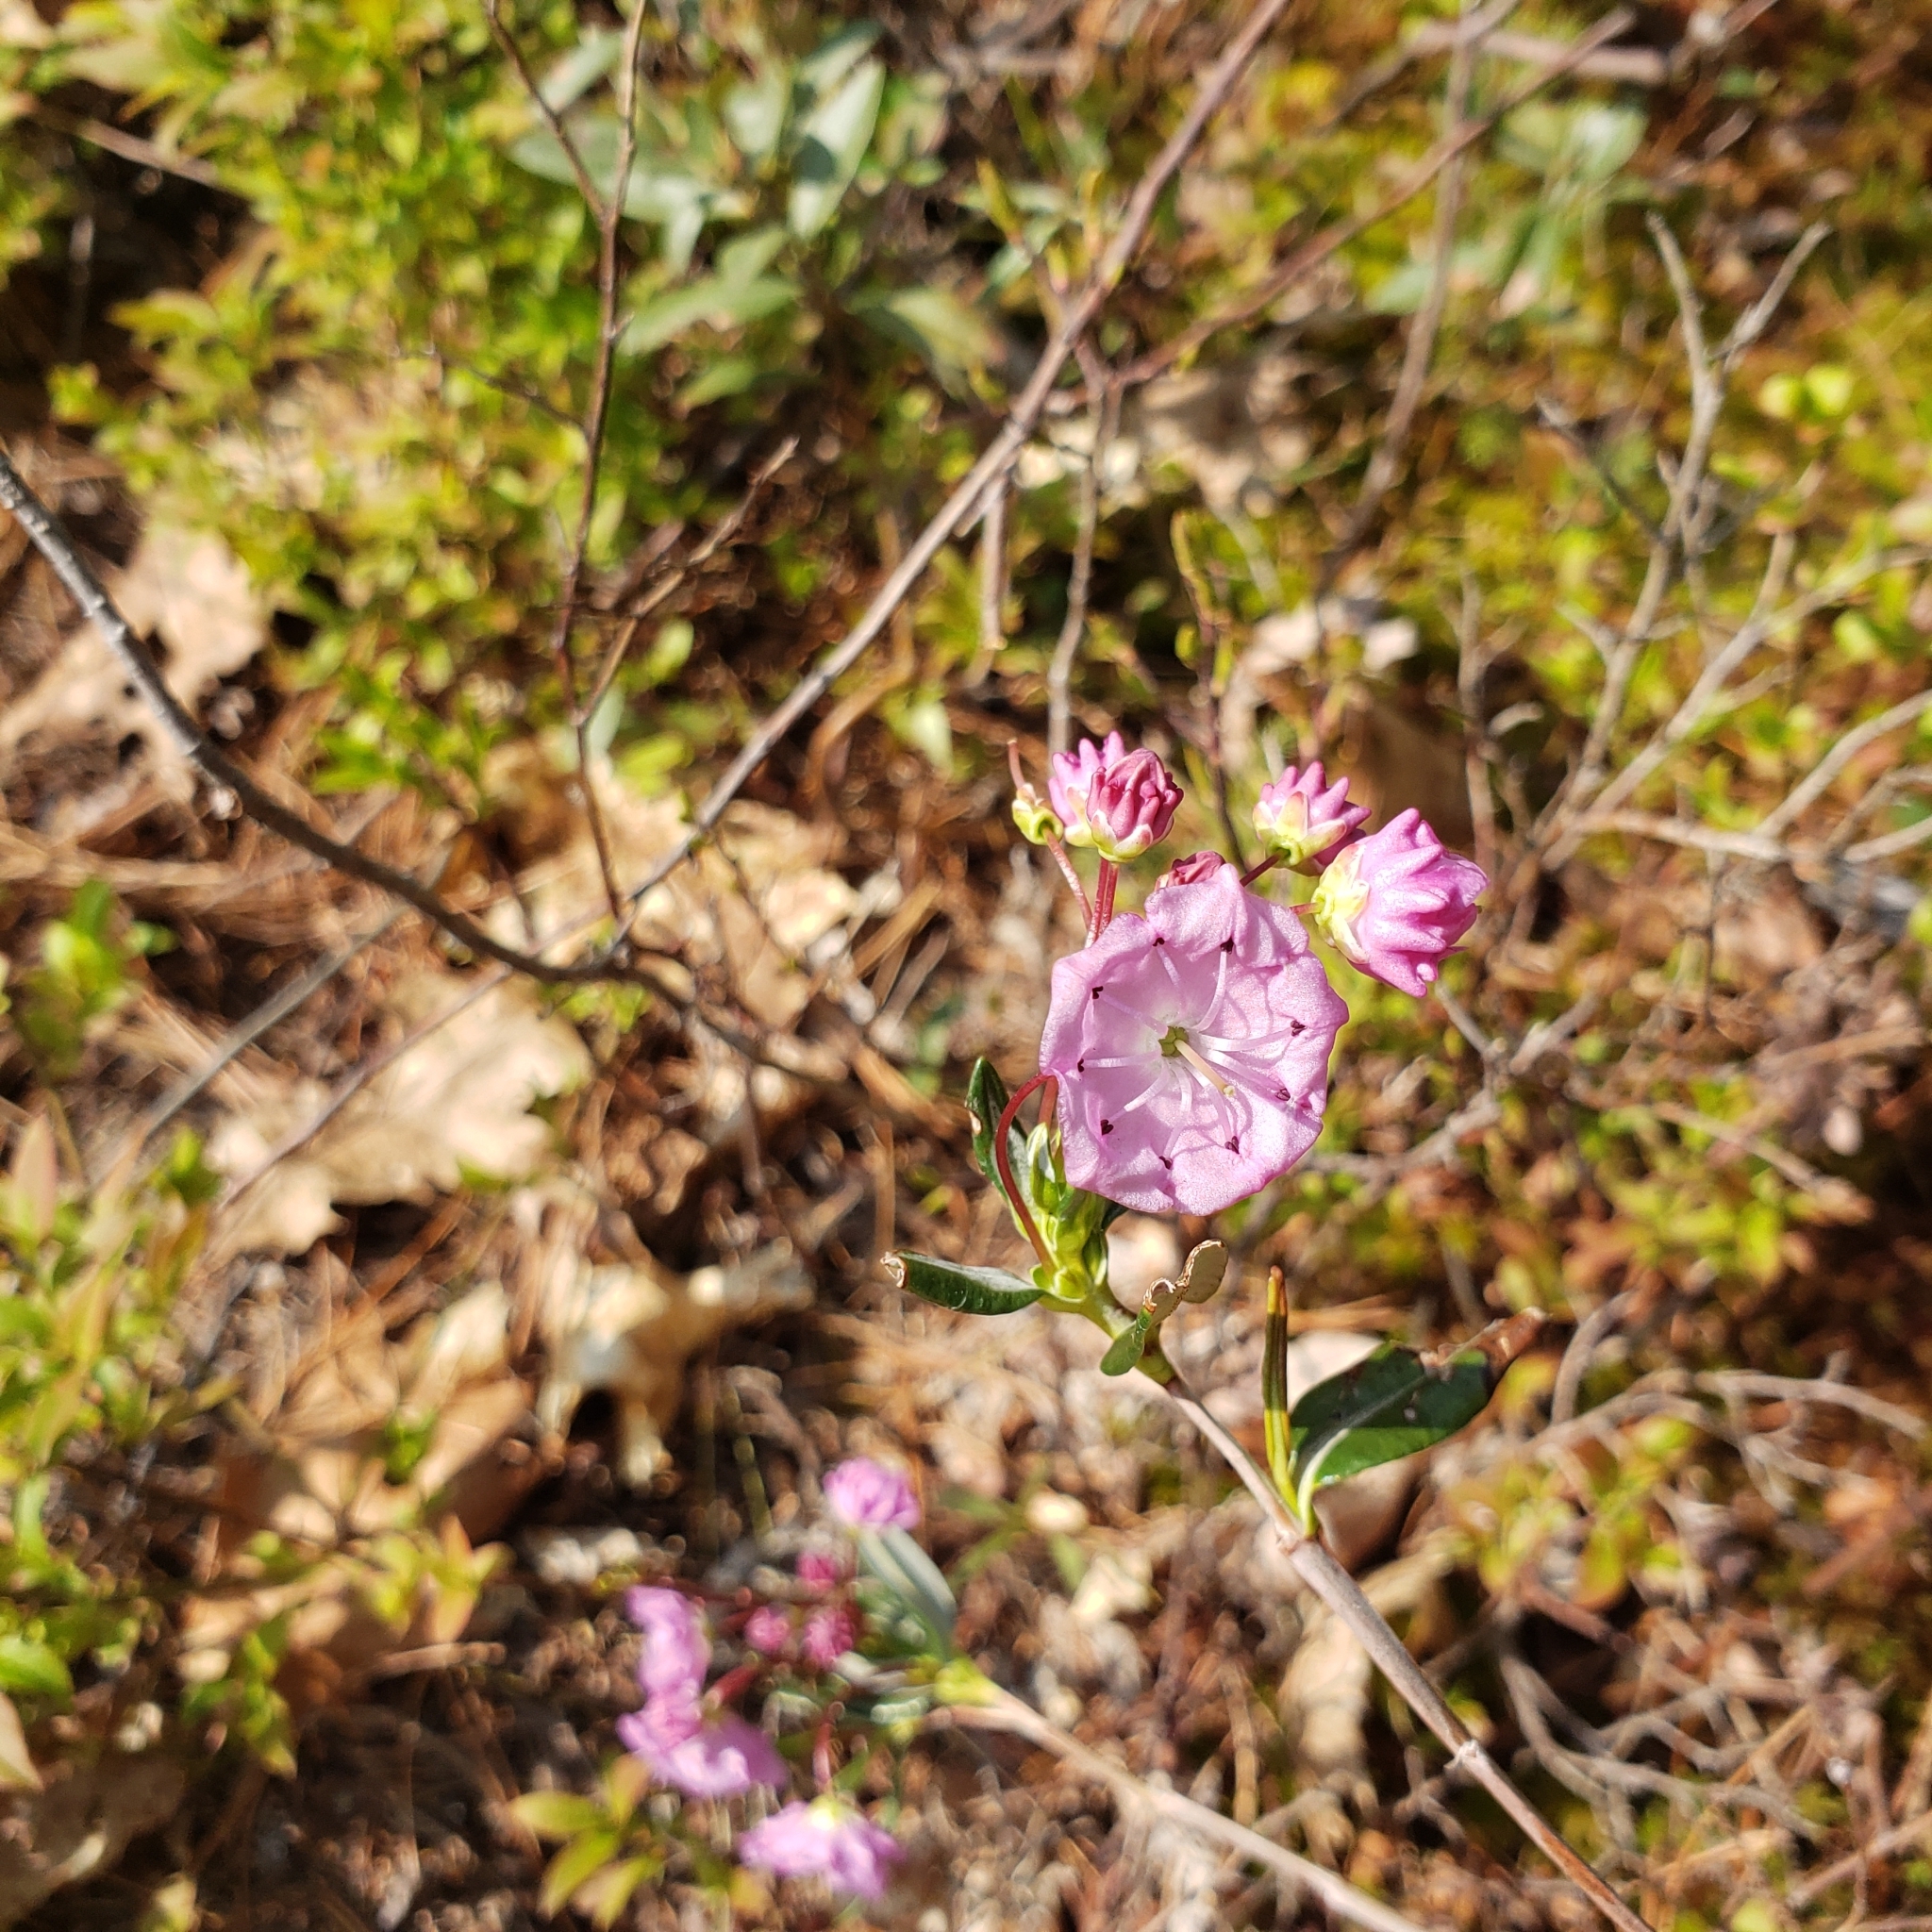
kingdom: Plantae
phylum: Tracheophyta
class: Magnoliopsida
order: Ericales
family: Ericaceae
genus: Kalmia
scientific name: Kalmia polifolia
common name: Bog-laurel
